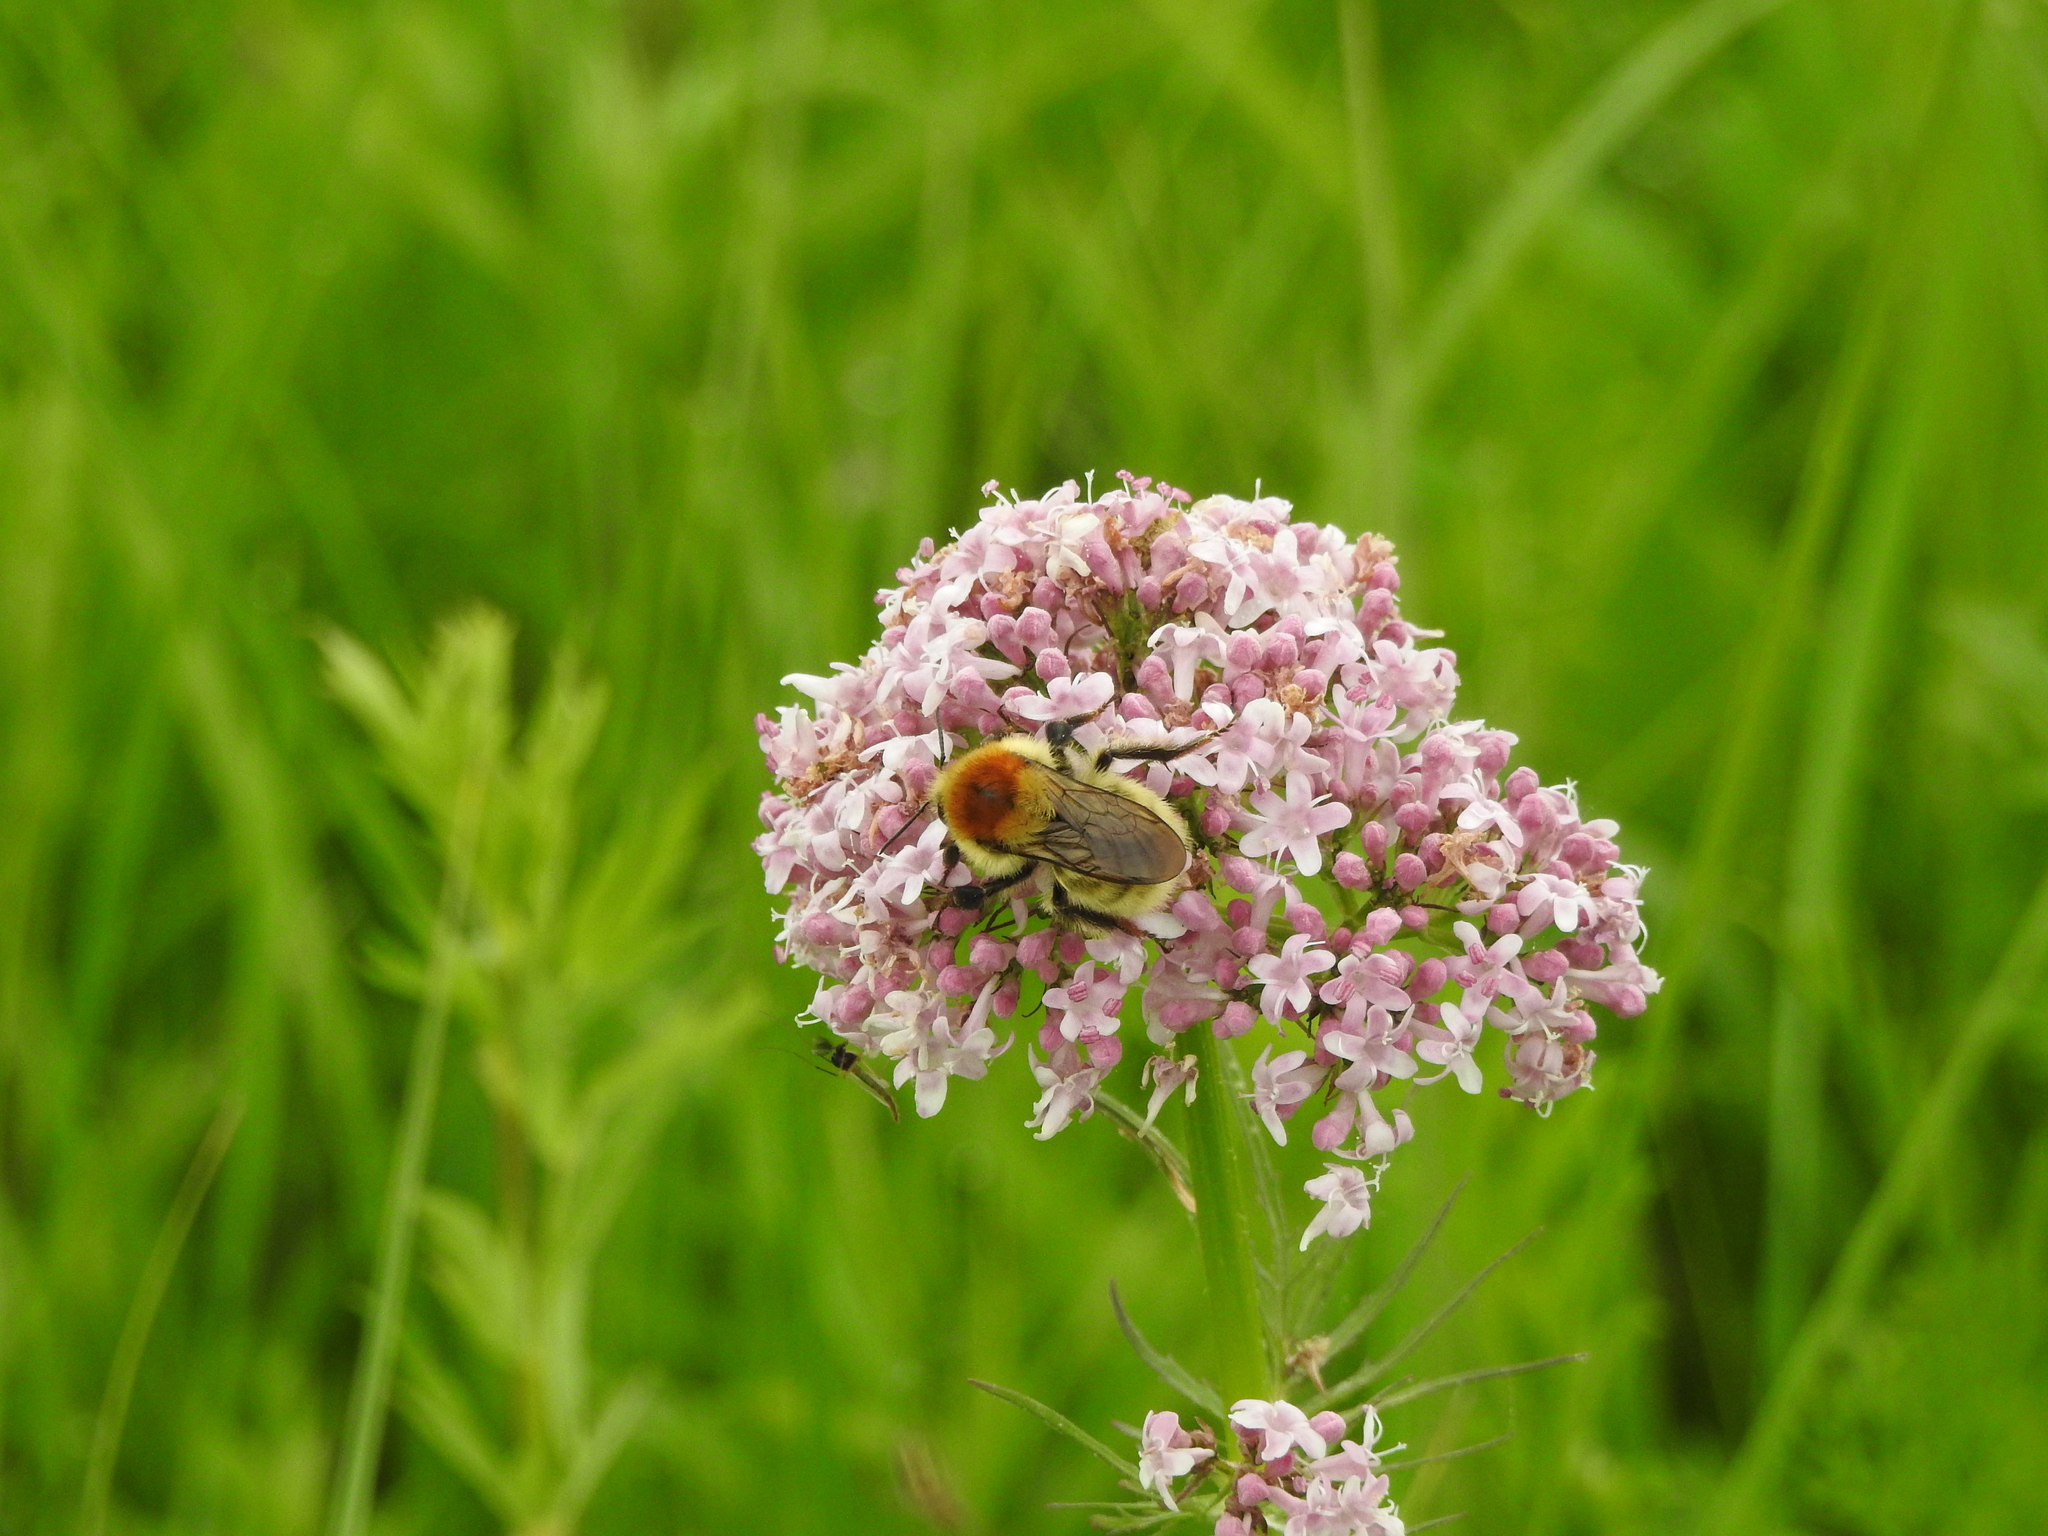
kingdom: Animalia
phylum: Arthropoda
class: Insecta
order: Hymenoptera
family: Apidae
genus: Bombus
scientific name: Bombus laesus
